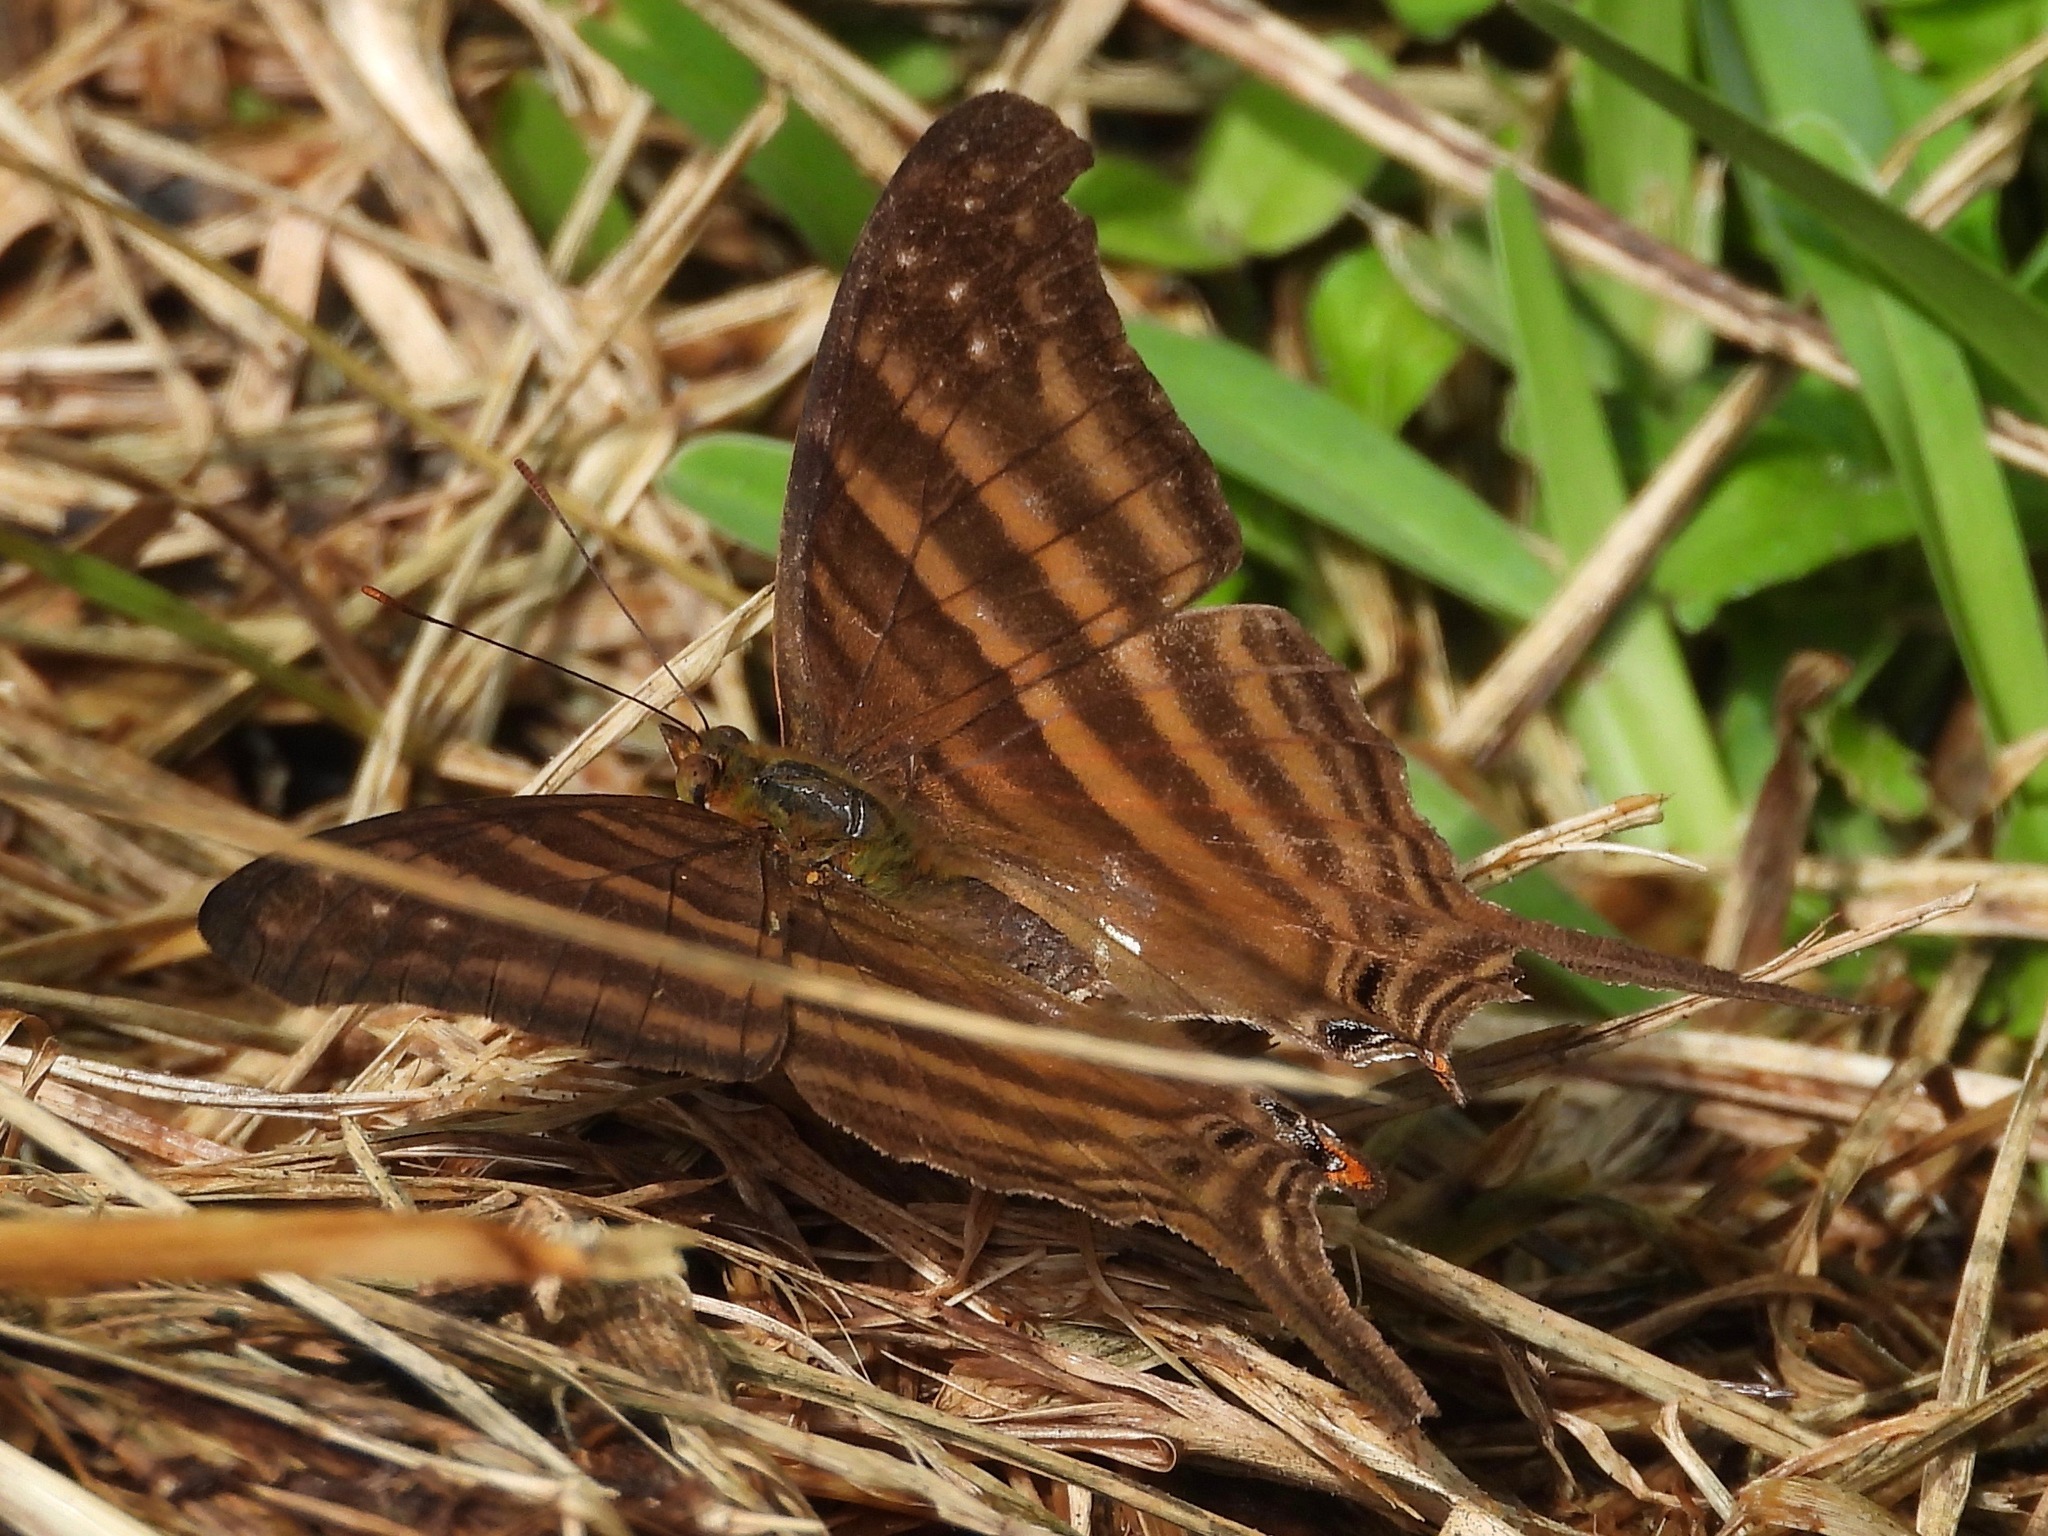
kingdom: Animalia
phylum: Arthropoda
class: Insecta
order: Lepidoptera
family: Nymphalidae
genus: Marpesia
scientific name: Marpesia chiron
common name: Many-banded daggerwing
